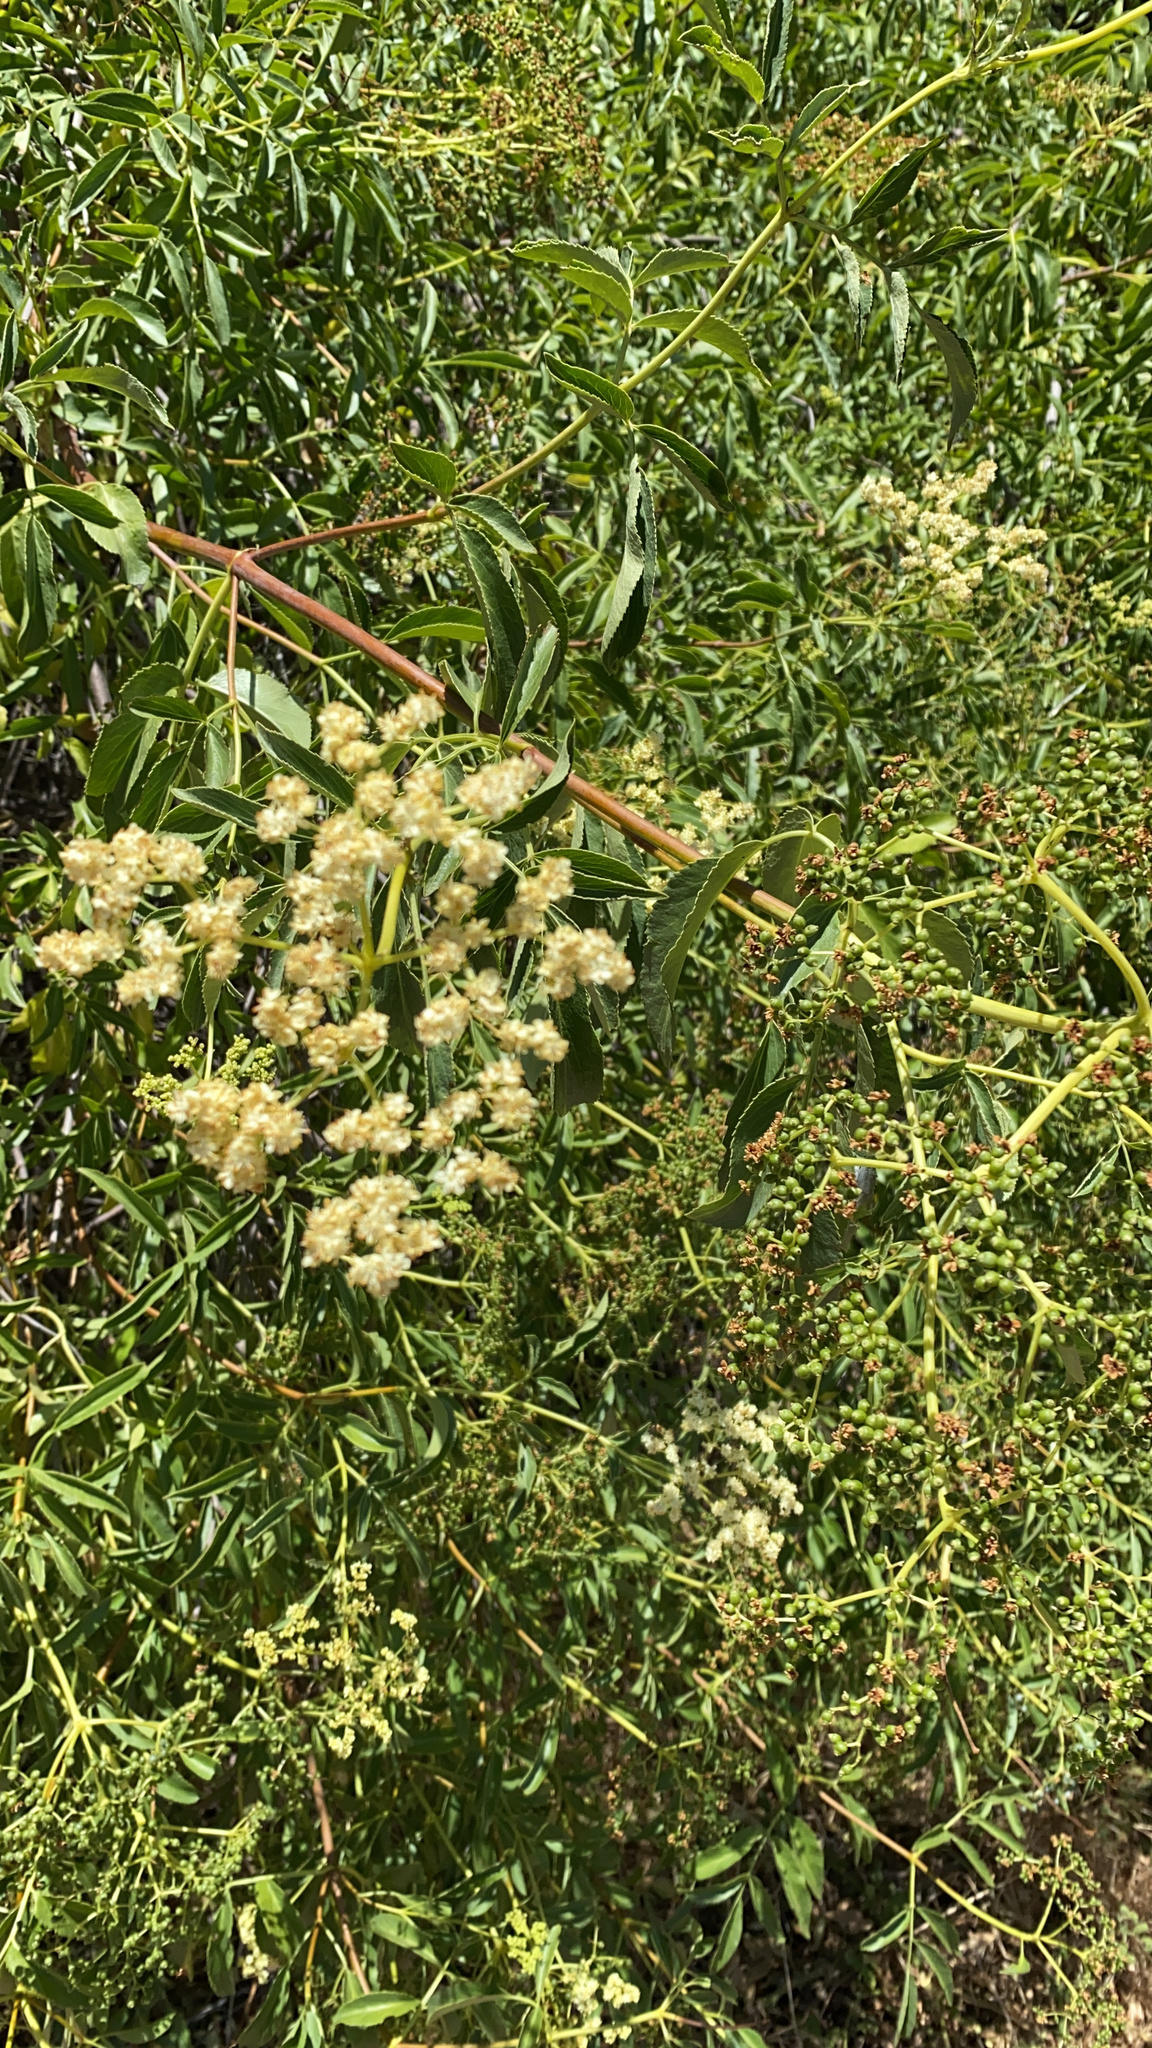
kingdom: Plantae
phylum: Tracheophyta
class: Magnoliopsida
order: Dipsacales
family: Viburnaceae
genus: Sambucus
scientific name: Sambucus cerulea
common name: Blue elder
